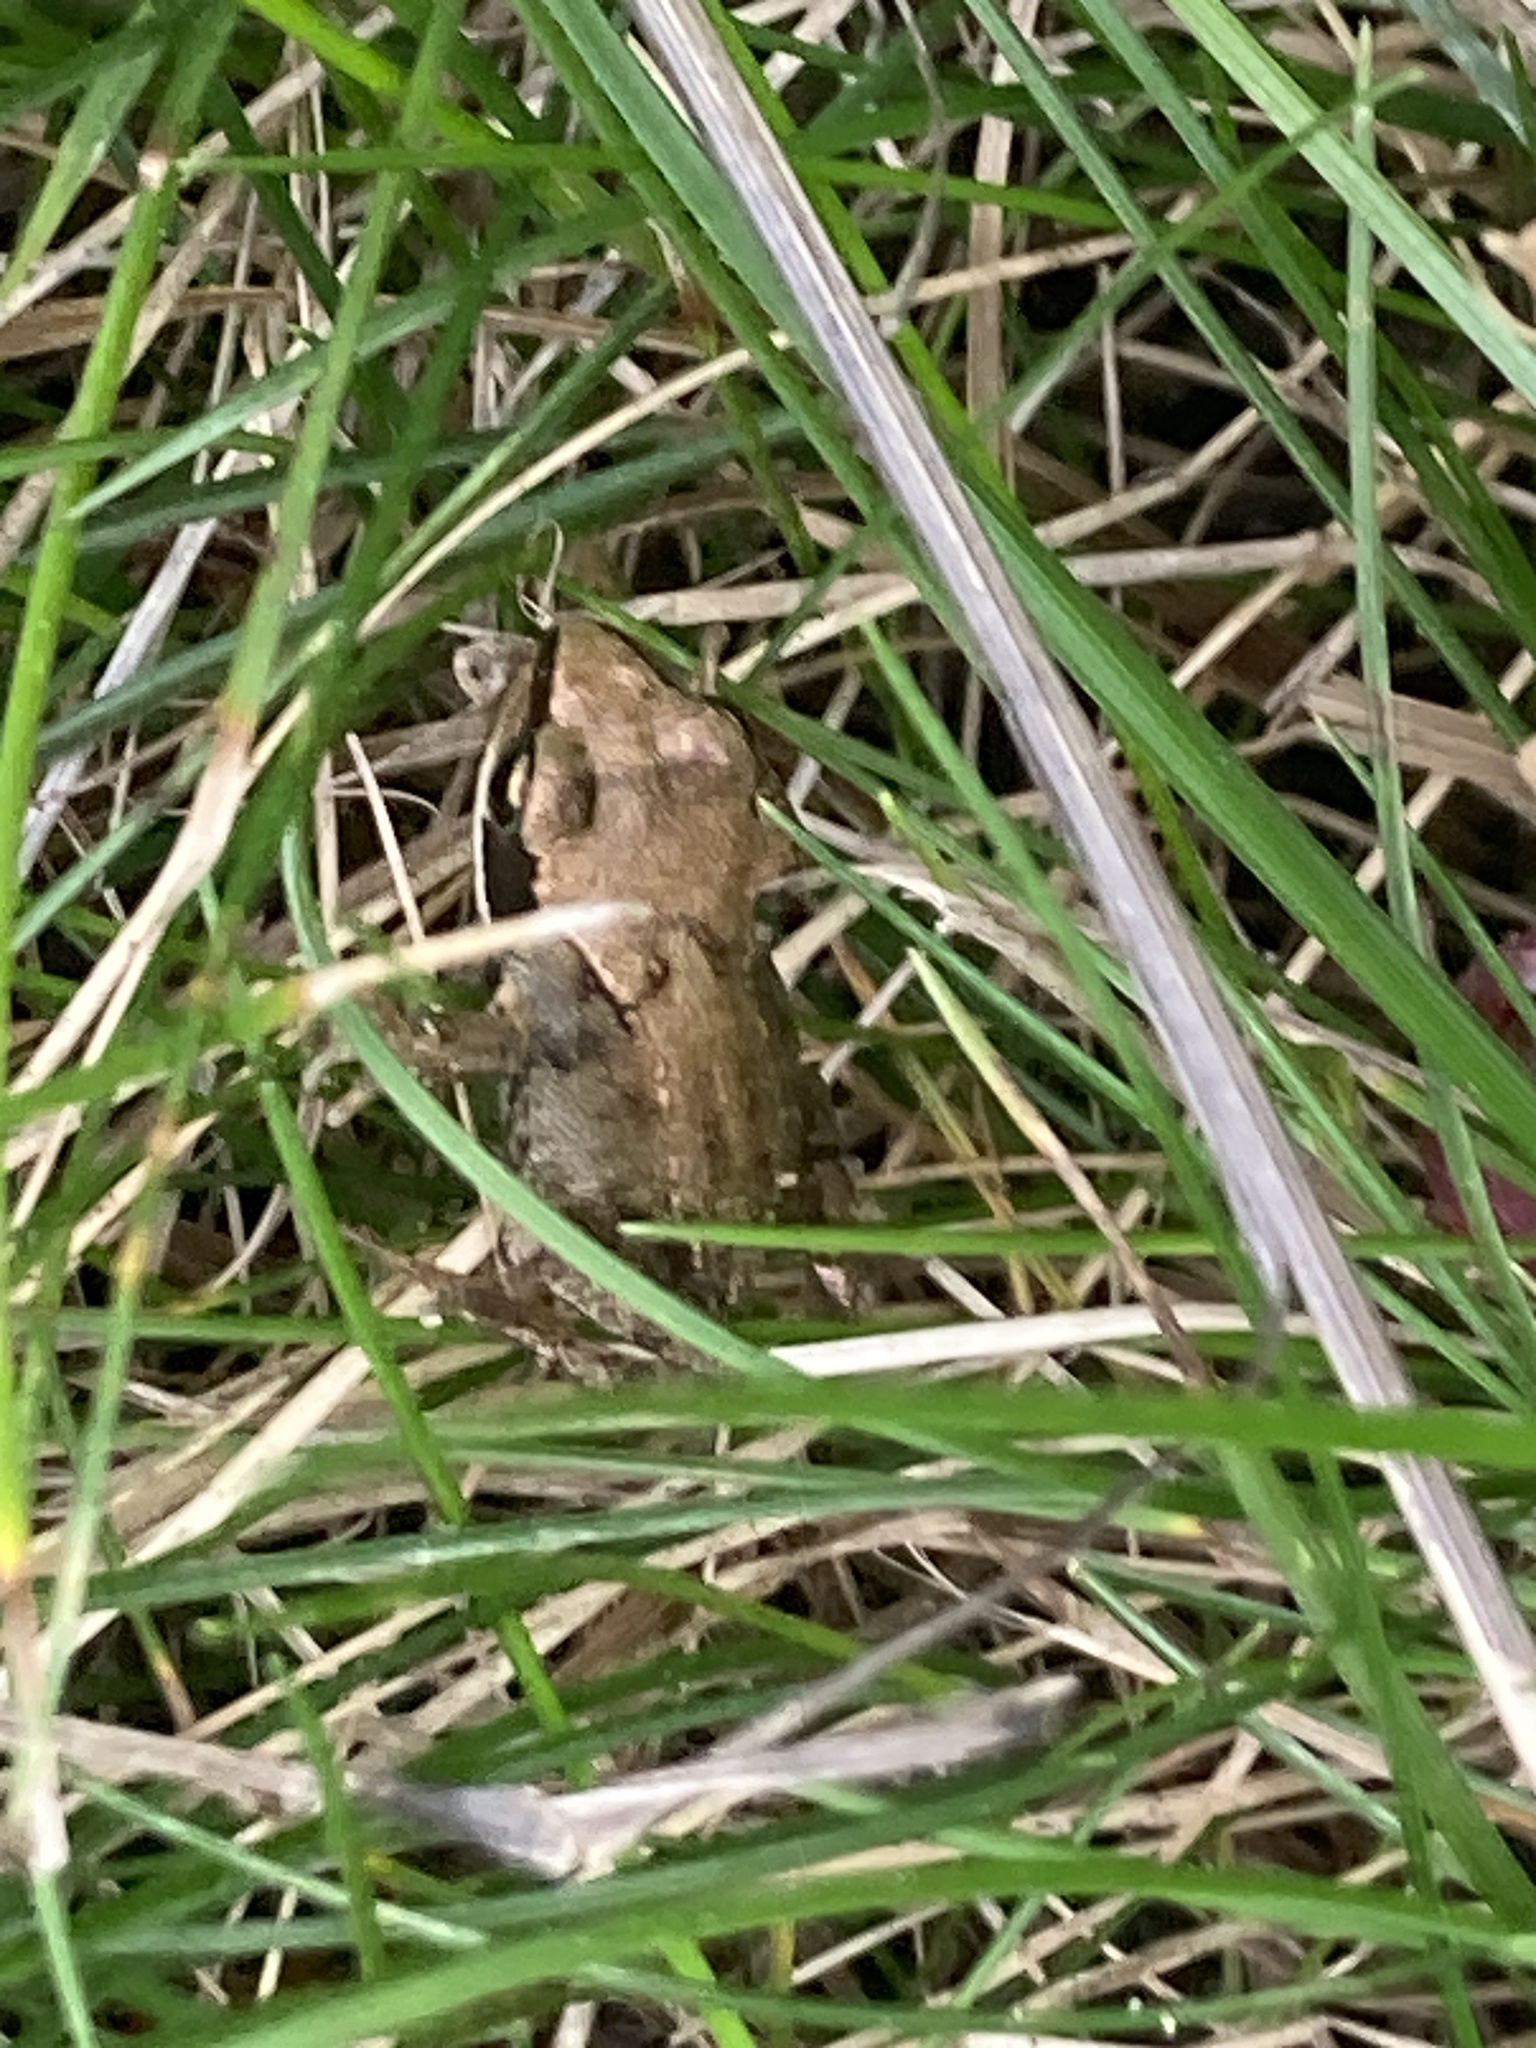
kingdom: Animalia
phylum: Chordata
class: Amphibia
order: Anura
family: Ranidae
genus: Rana
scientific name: Rana temporaria
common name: Common frog
